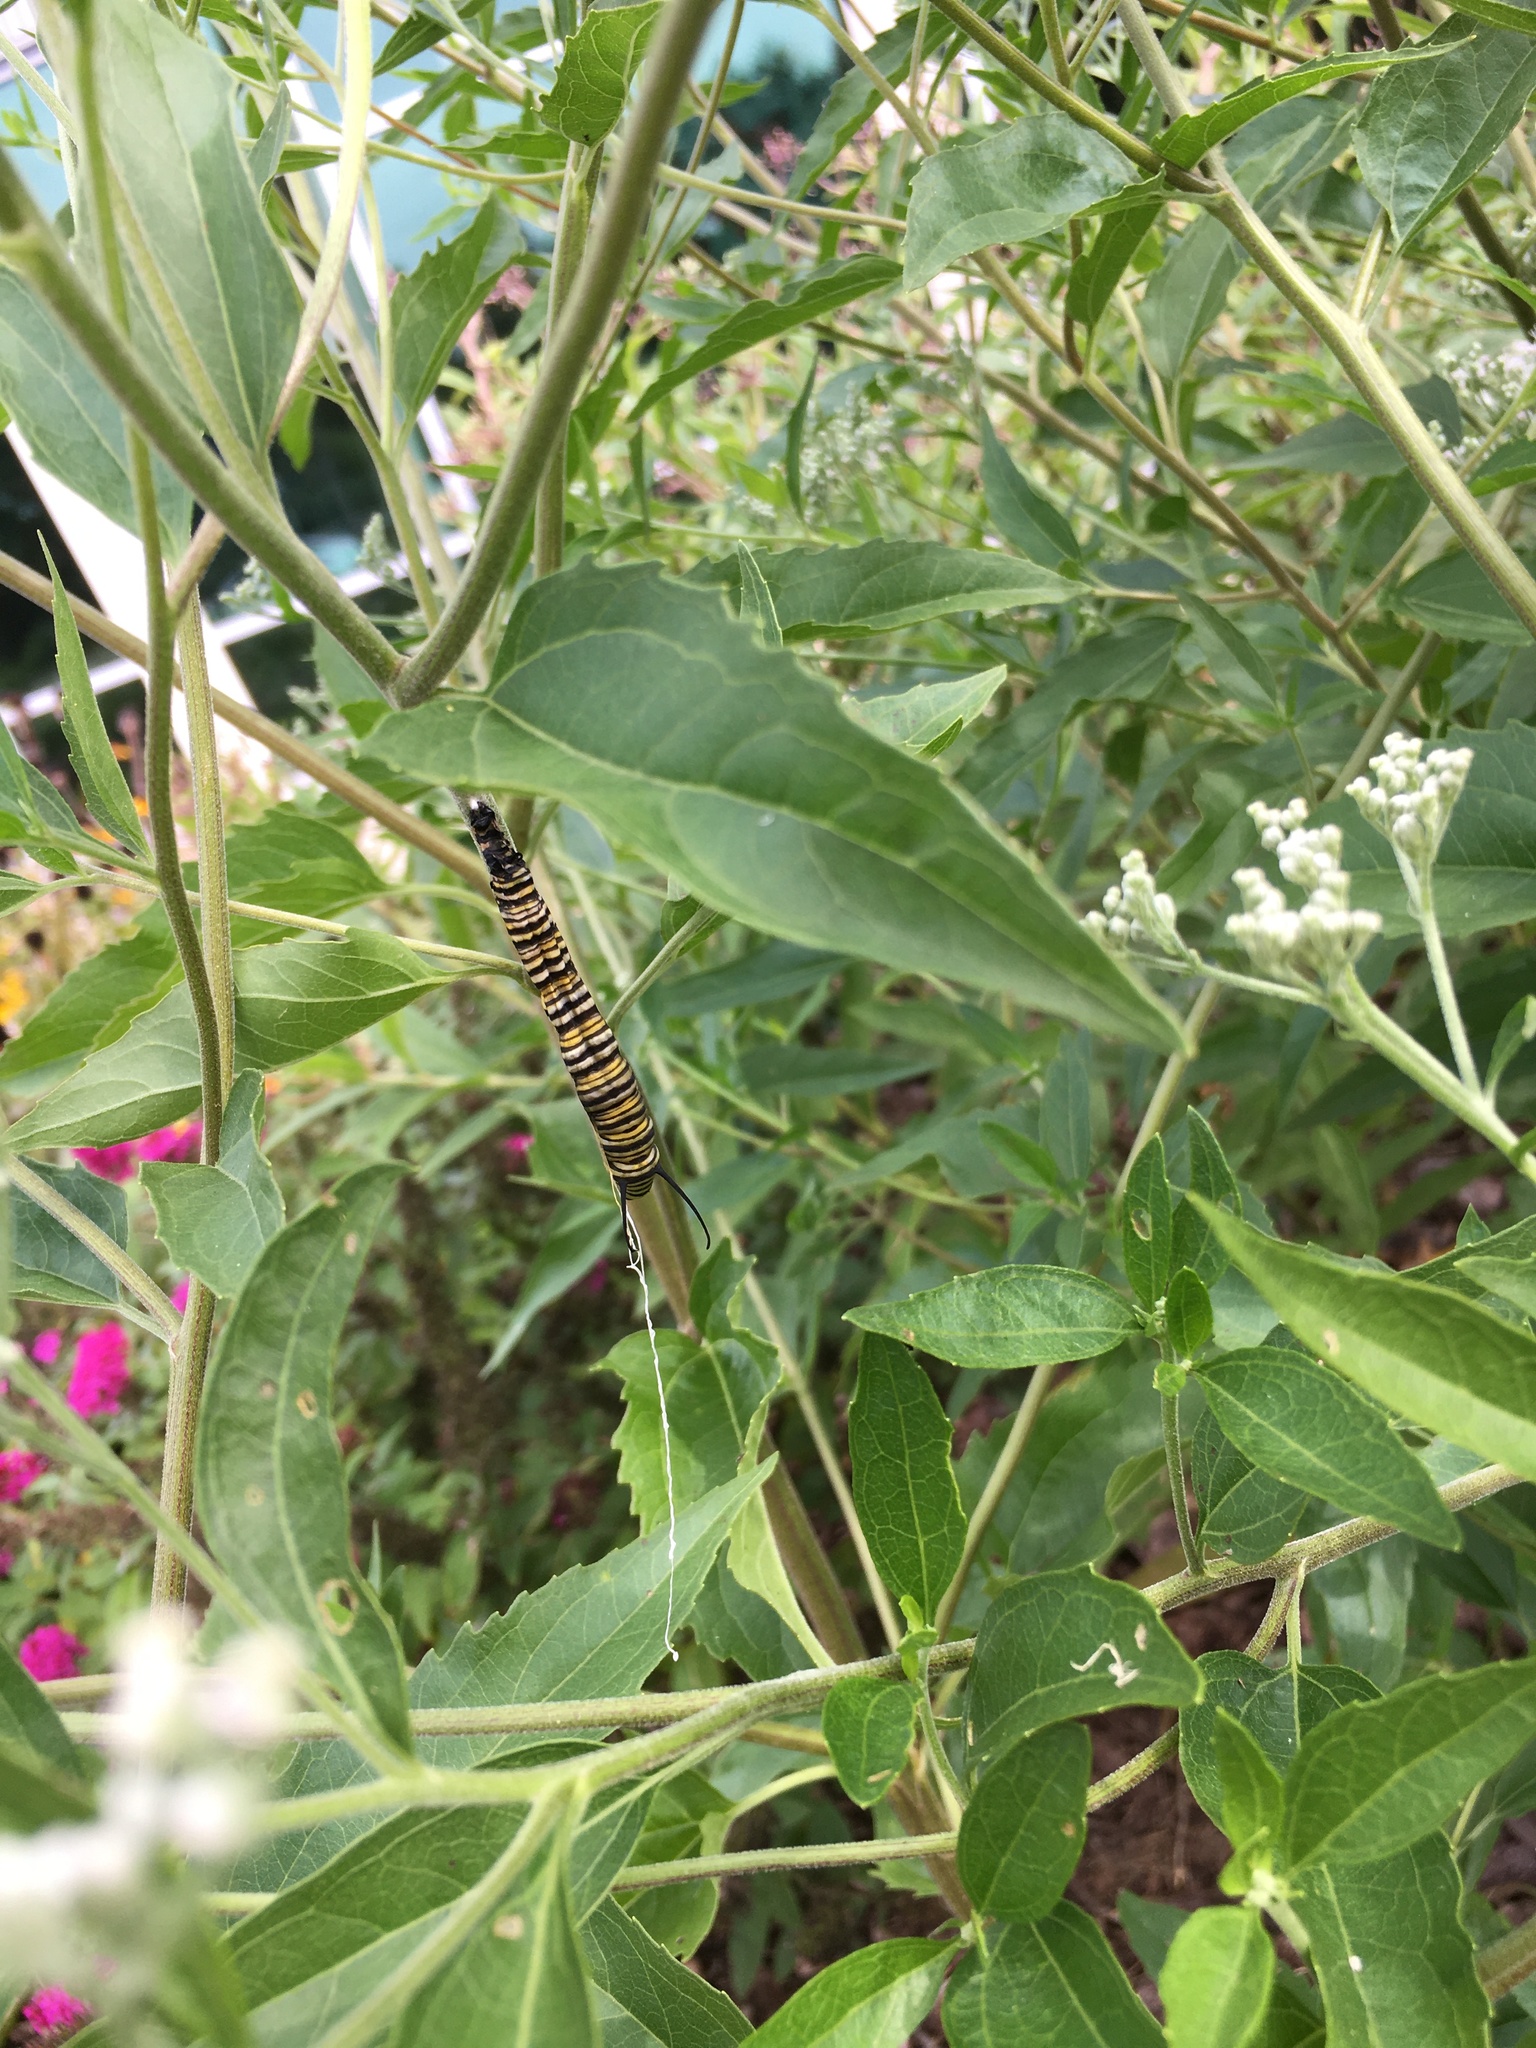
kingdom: Animalia
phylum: Arthropoda
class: Insecta
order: Lepidoptera
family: Nymphalidae
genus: Danaus
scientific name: Danaus plexippus
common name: Monarch
